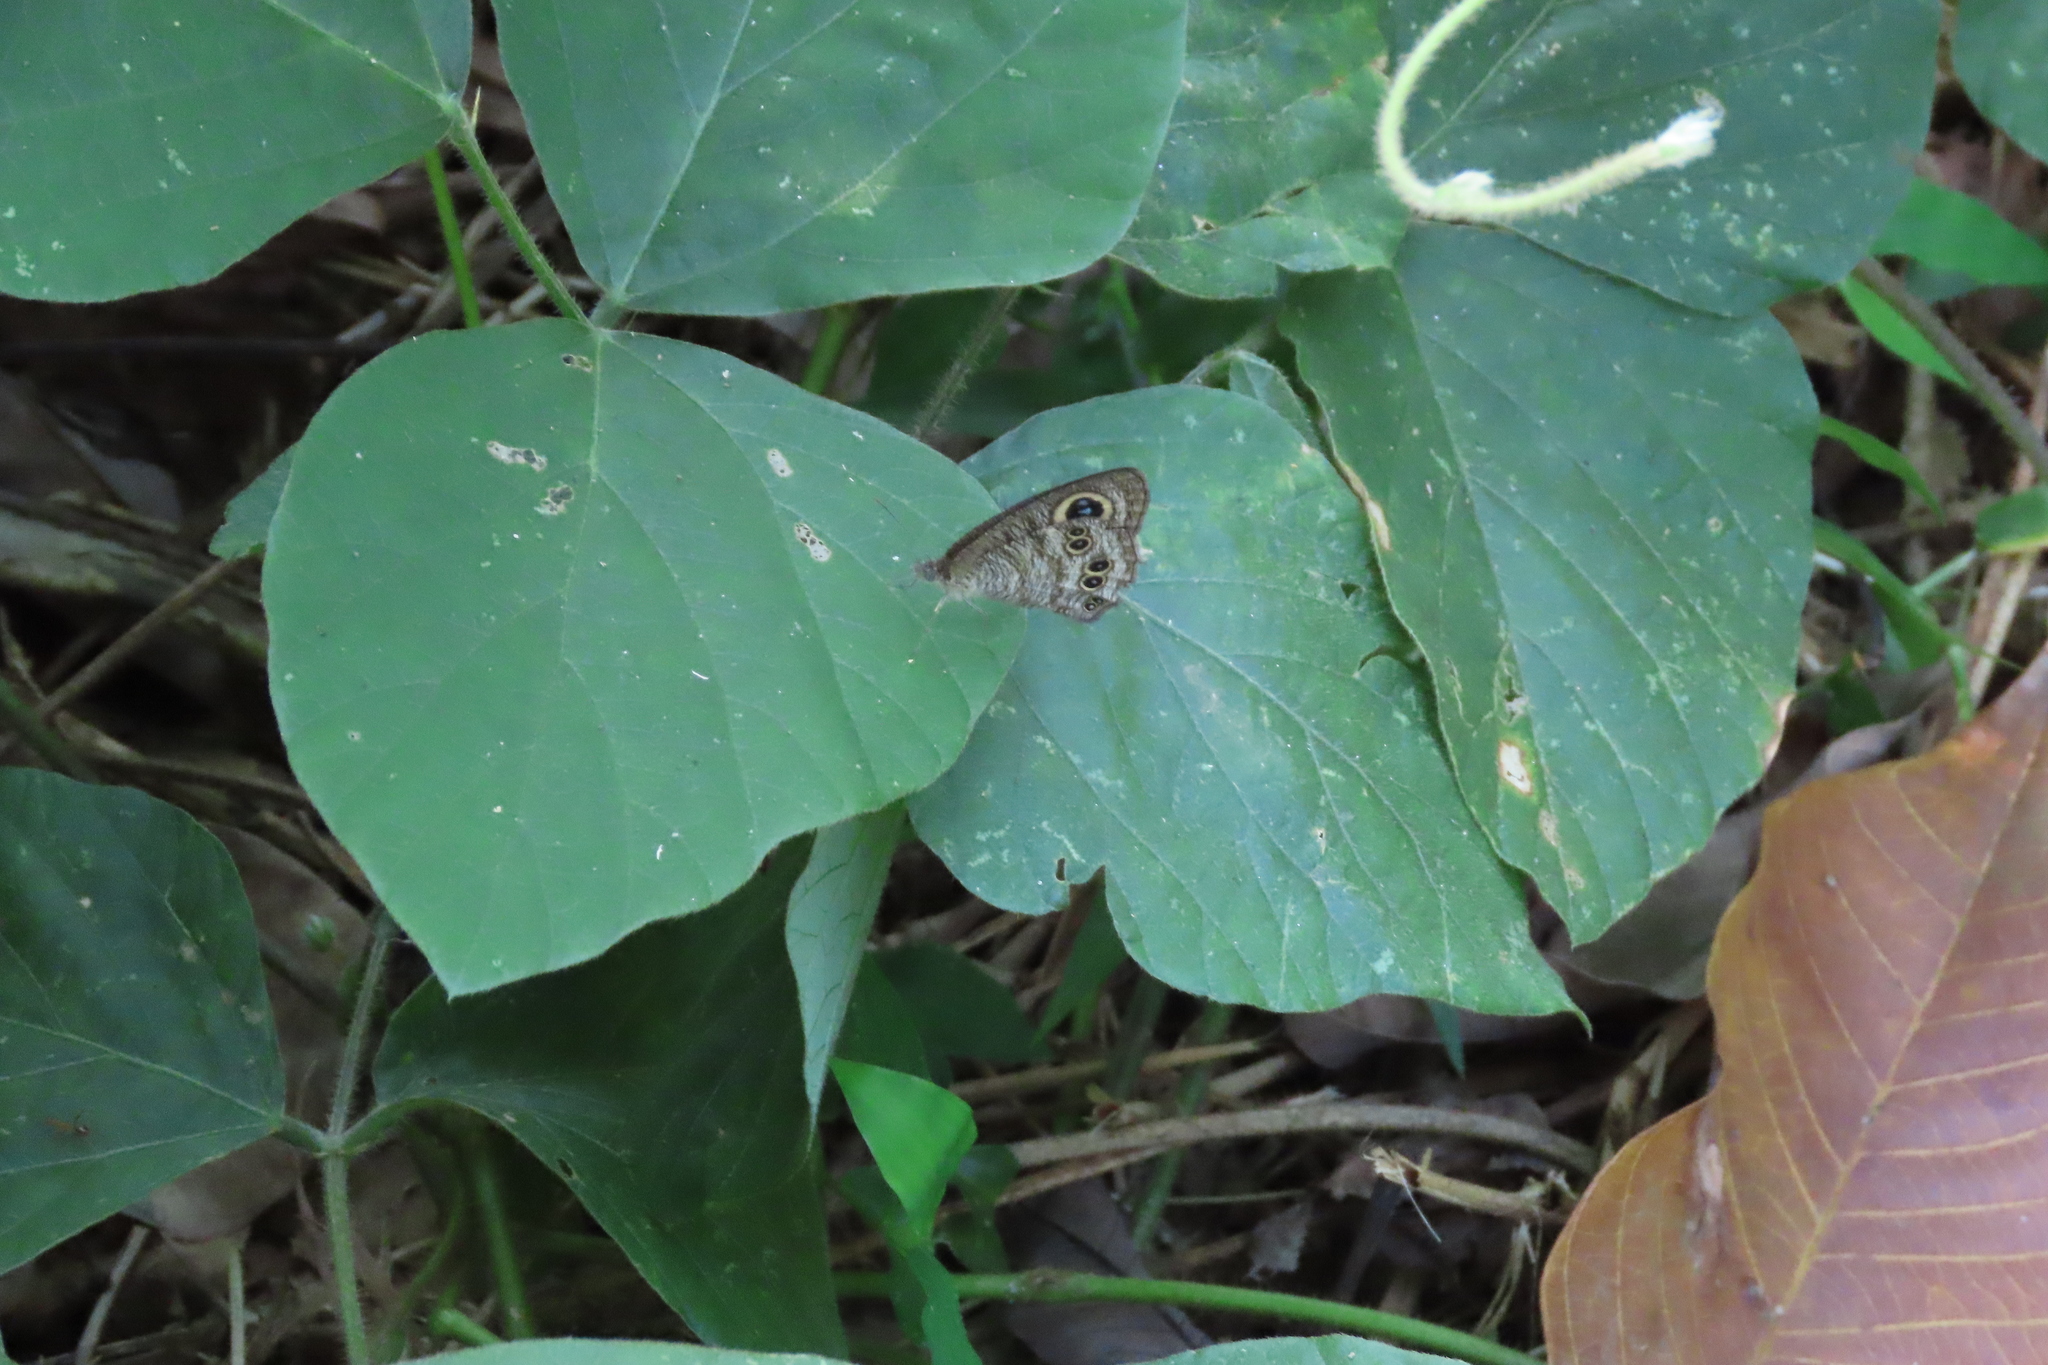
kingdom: Animalia
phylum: Arthropoda
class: Insecta
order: Lepidoptera
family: Nymphalidae
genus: Ypthima
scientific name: Ypthima baldus
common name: Common five-ring
